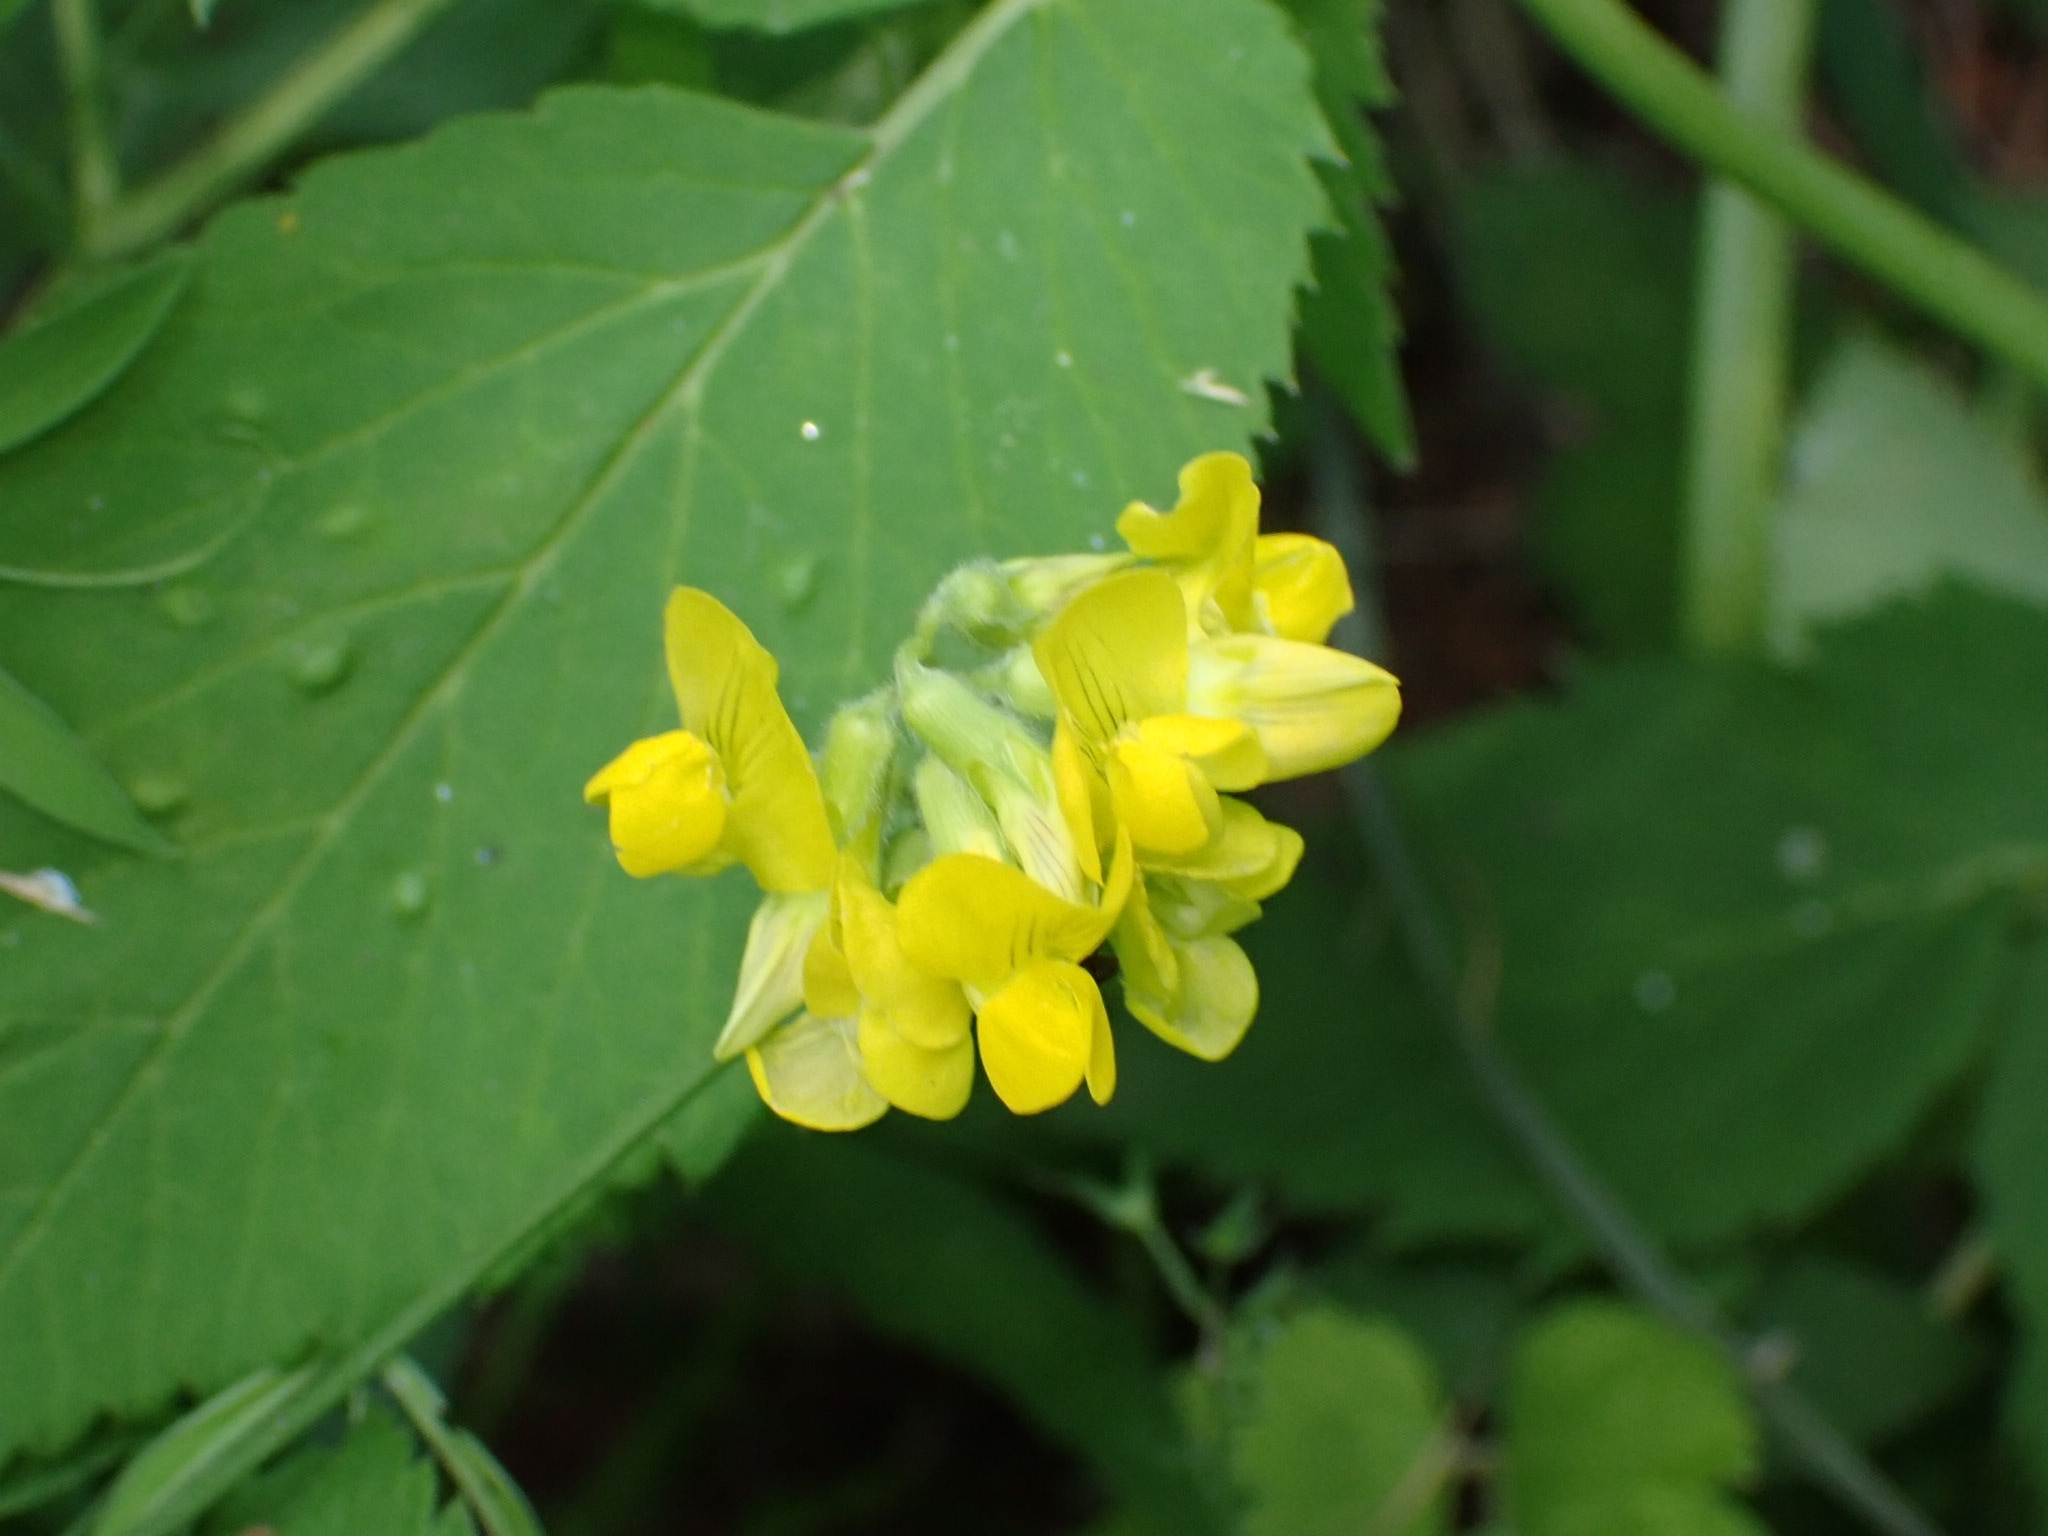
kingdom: Plantae
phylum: Tracheophyta
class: Magnoliopsida
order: Fabales
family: Fabaceae
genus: Lathyrus
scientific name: Lathyrus pratensis
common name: Meadow vetchling
